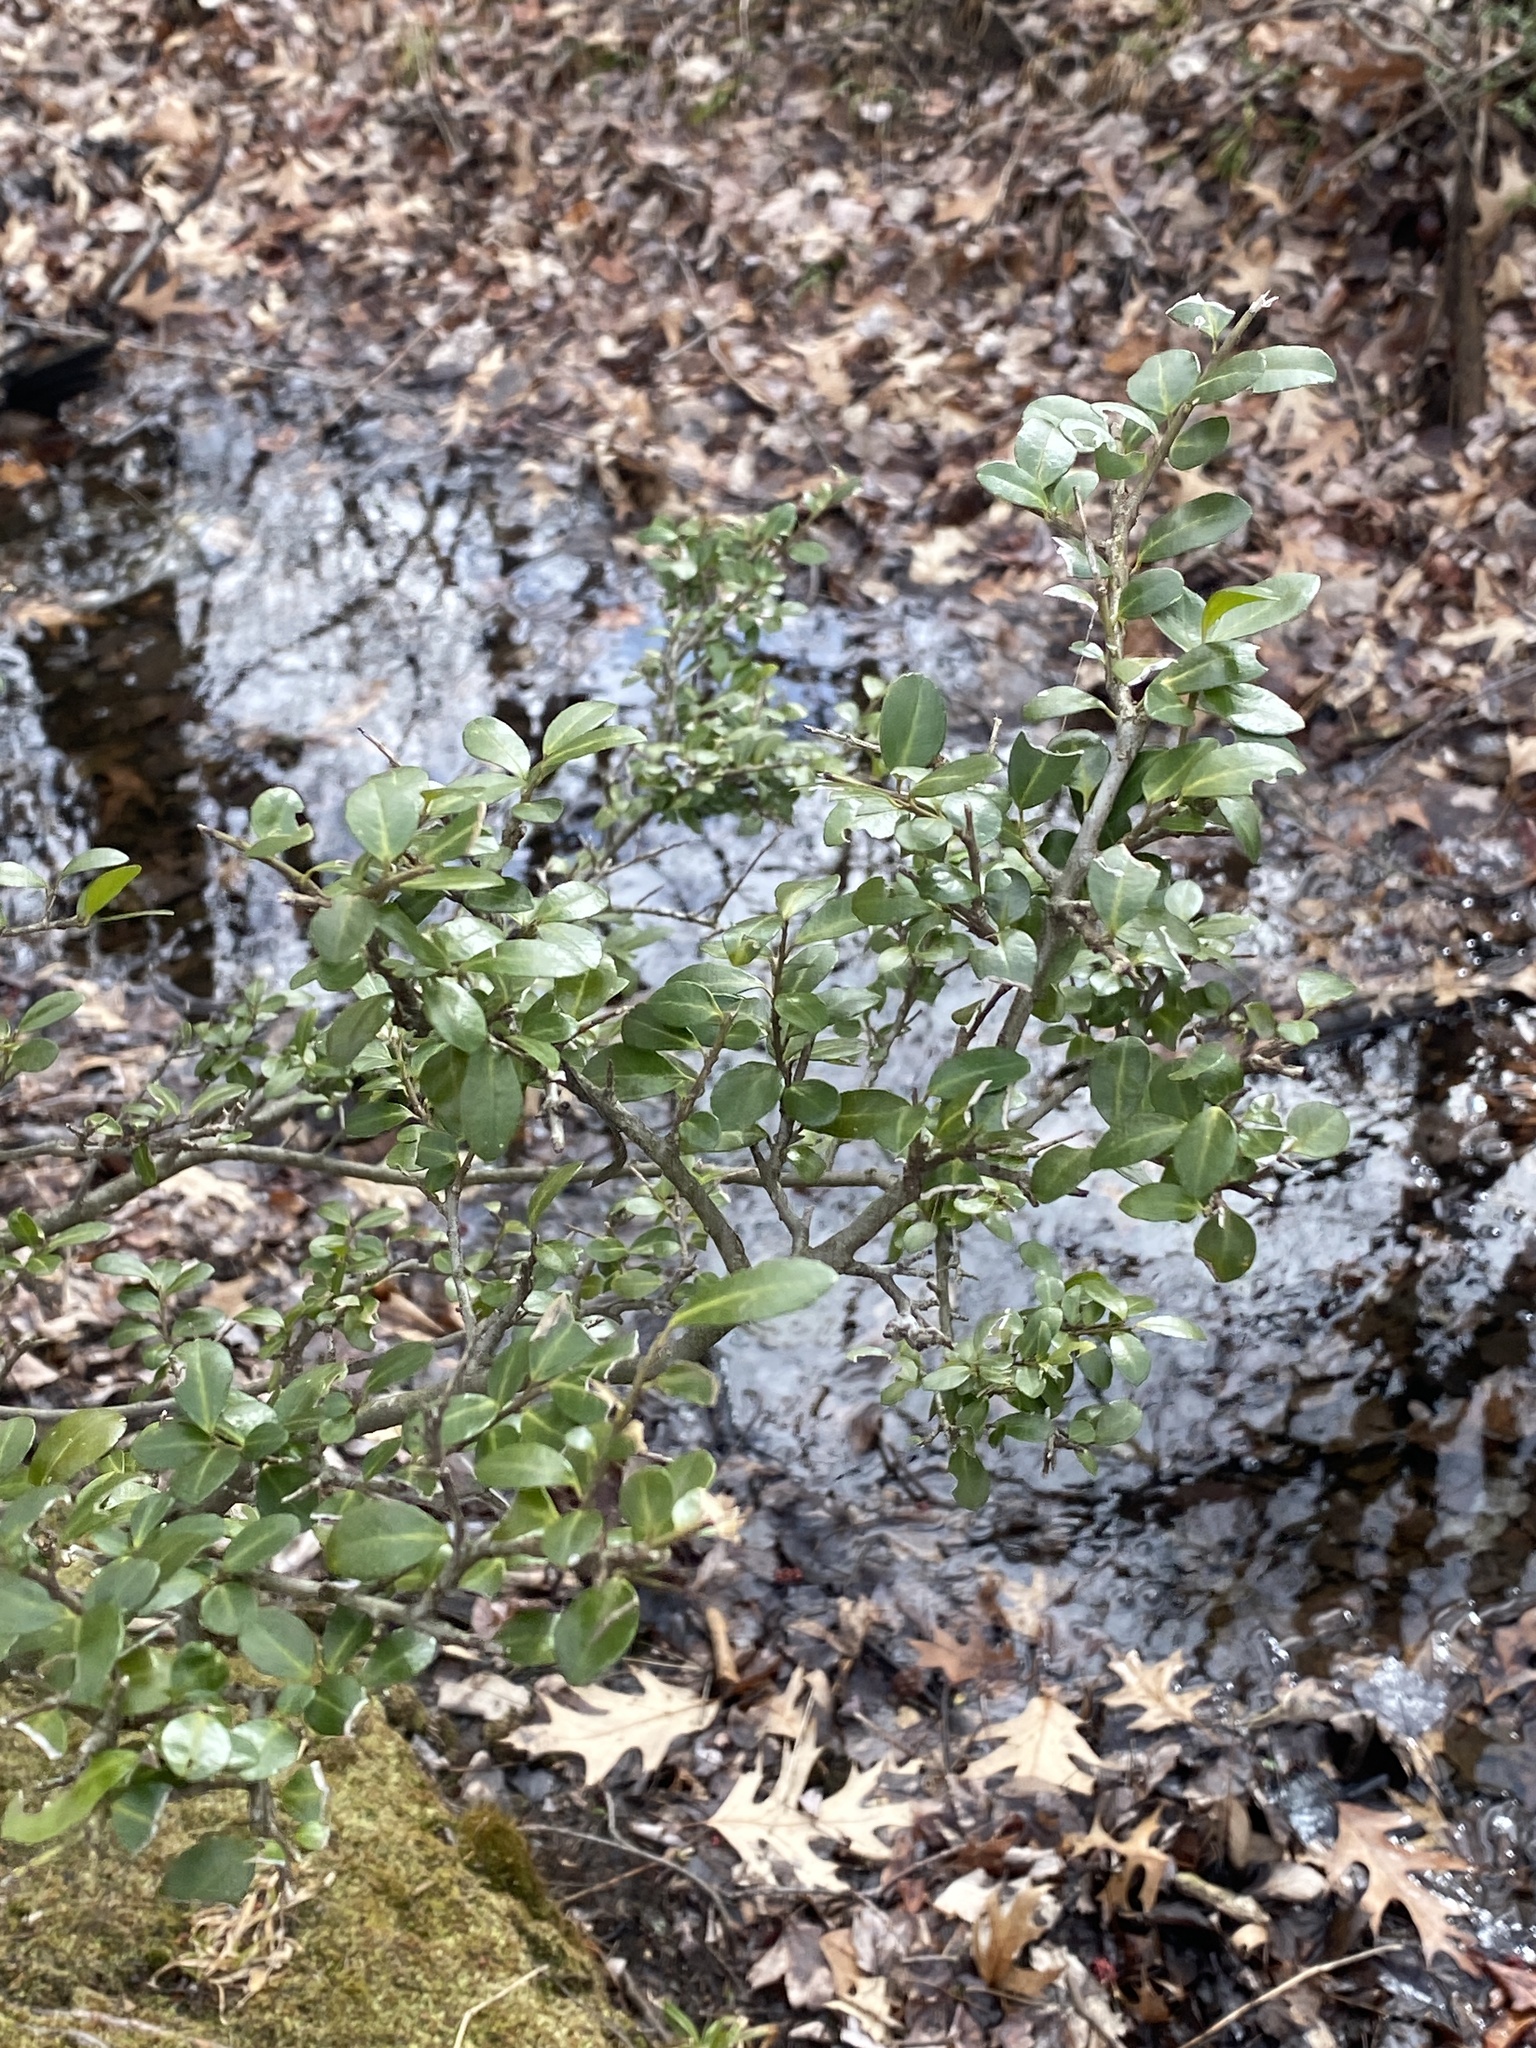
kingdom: Plantae
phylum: Tracheophyta
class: Magnoliopsida
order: Aquifoliales
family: Aquifoliaceae
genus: Ilex
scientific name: Ilex crenata
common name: Japanese holly
